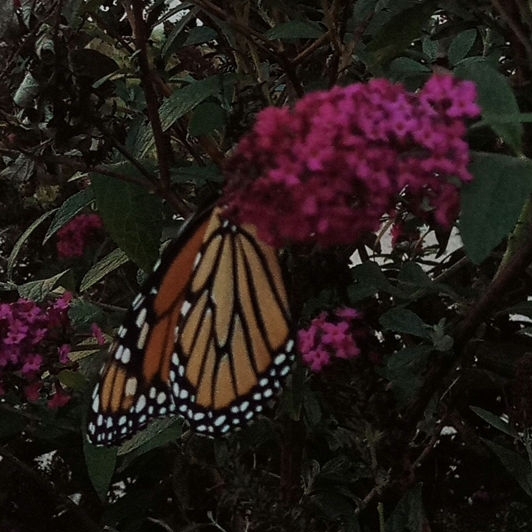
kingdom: Animalia
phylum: Arthropoda
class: Insecta
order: Lepidoptera
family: Nymphalidae
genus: Danaus
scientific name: Danaus plexippus
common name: Monarch
